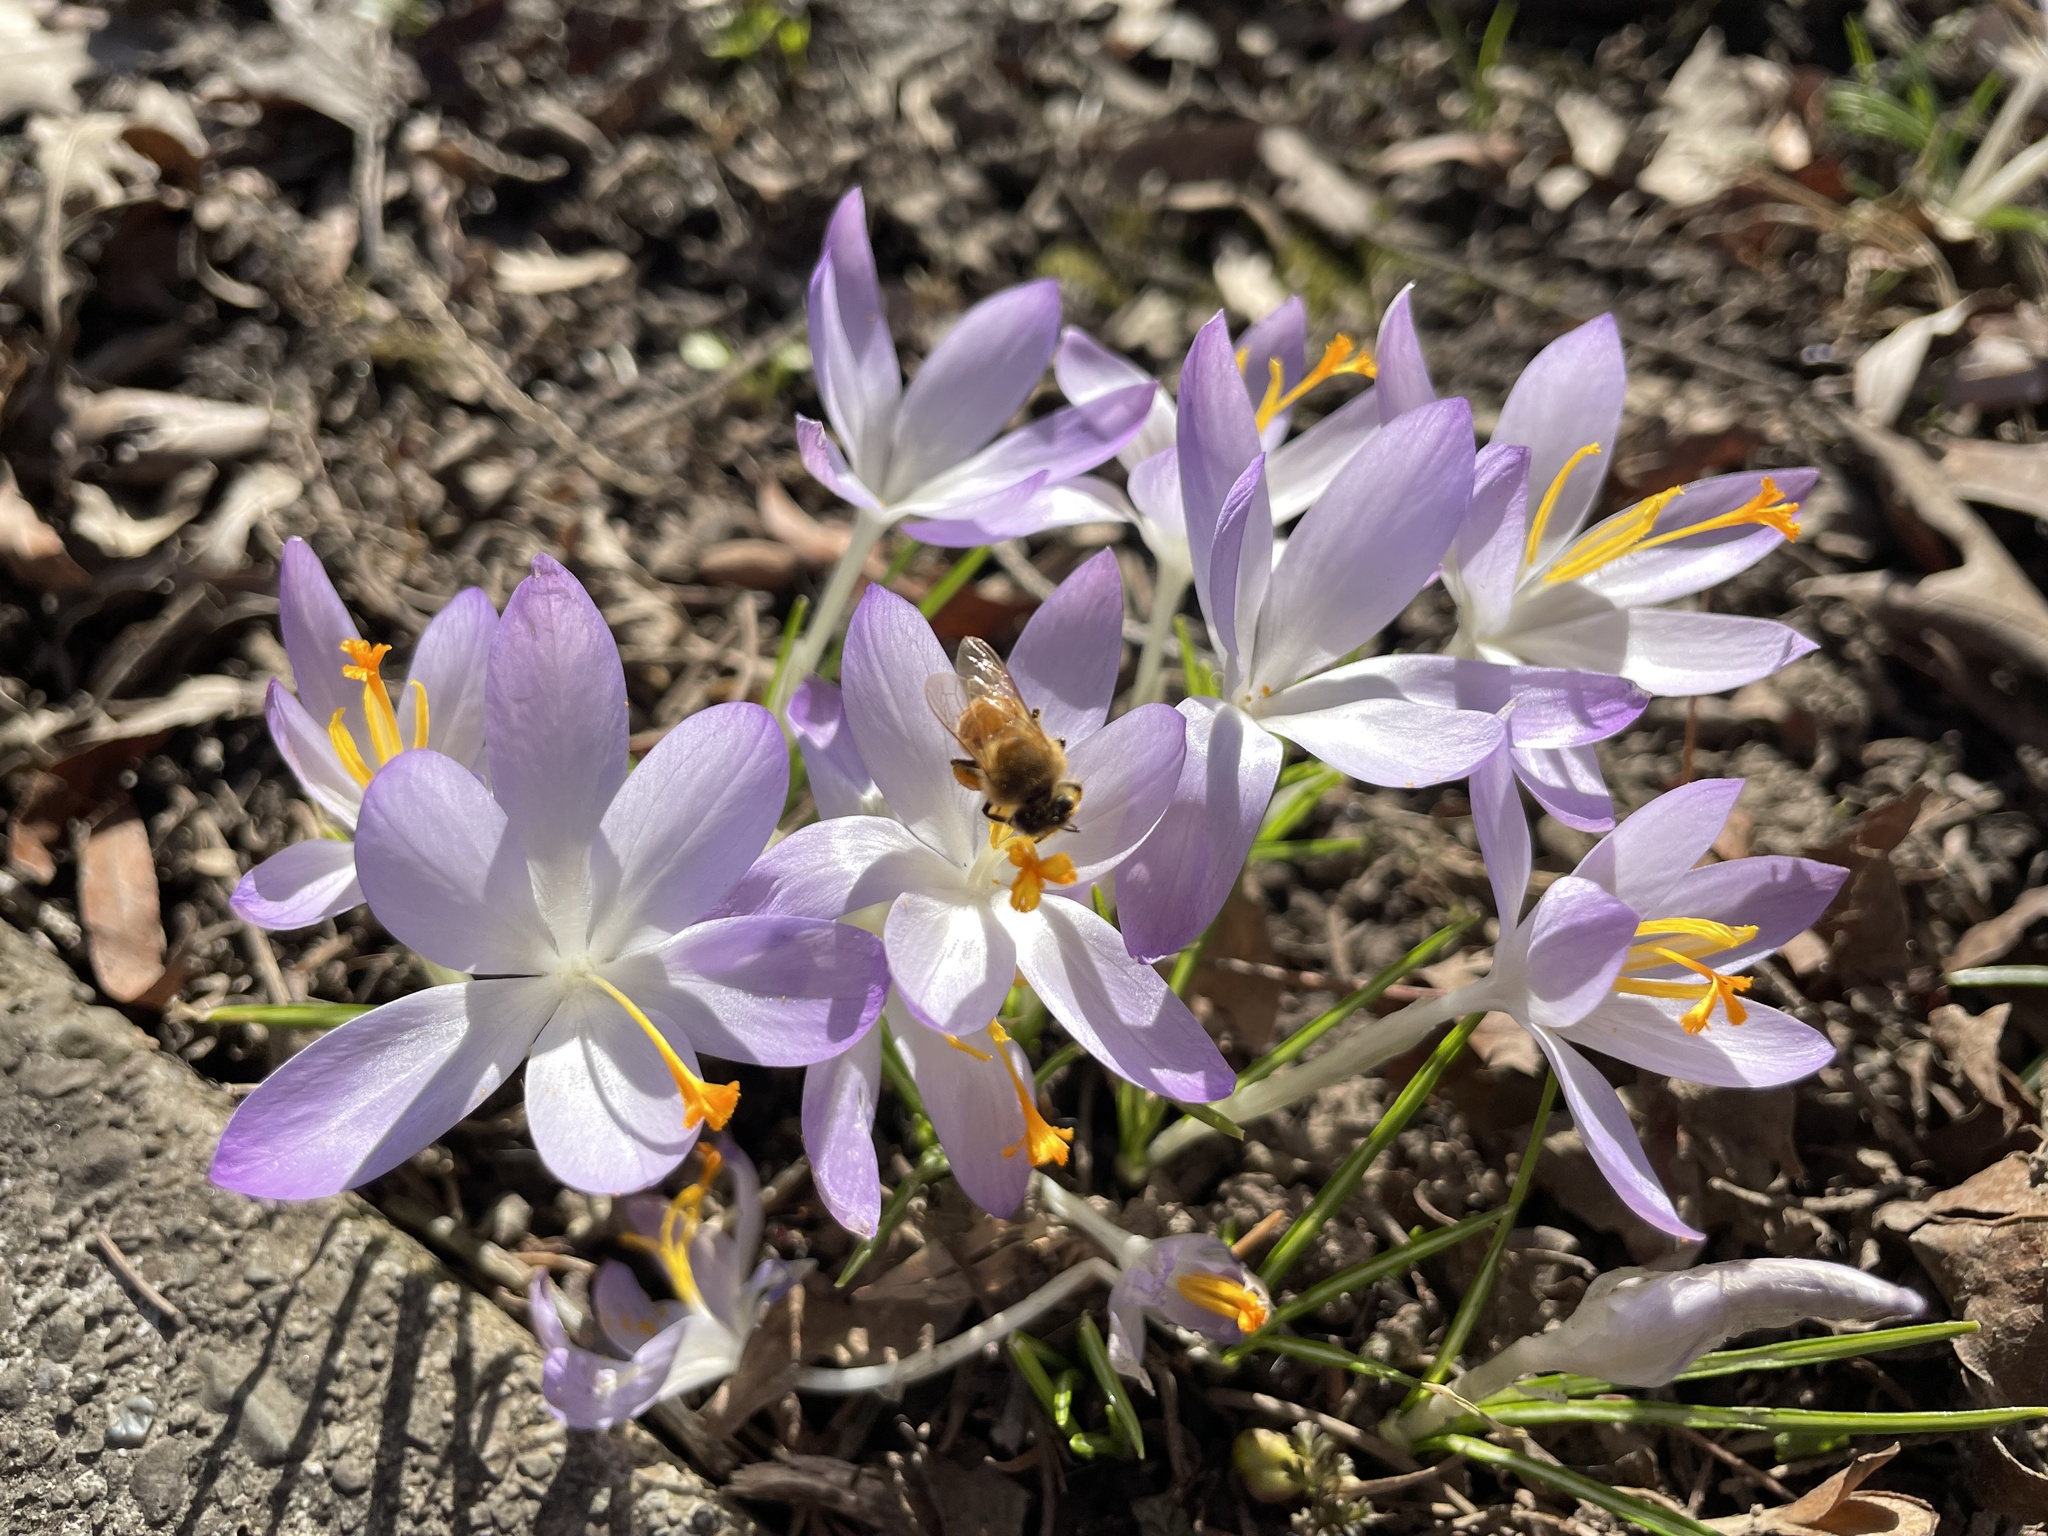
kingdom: Animalia
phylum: Arthropoda
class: Insecta
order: Hymenoptera
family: Apidae
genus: Apis
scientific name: Apis mellifera
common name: Honey bee
